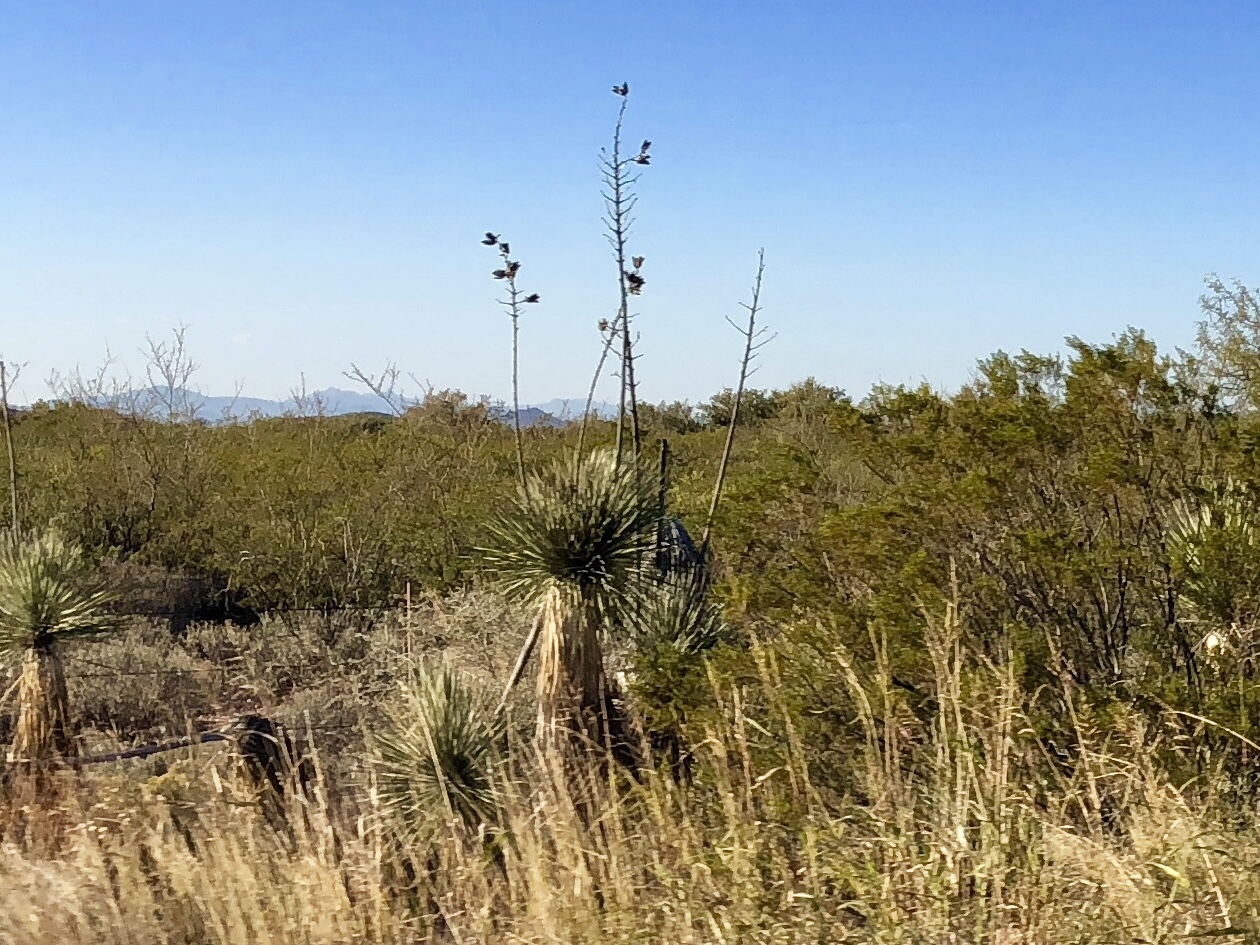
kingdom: Plantae
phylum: Tracheophyta
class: Liliopsida
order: Asparagales
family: Asparagaceae
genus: Yucca
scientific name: Yucca elata
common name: Palmella
